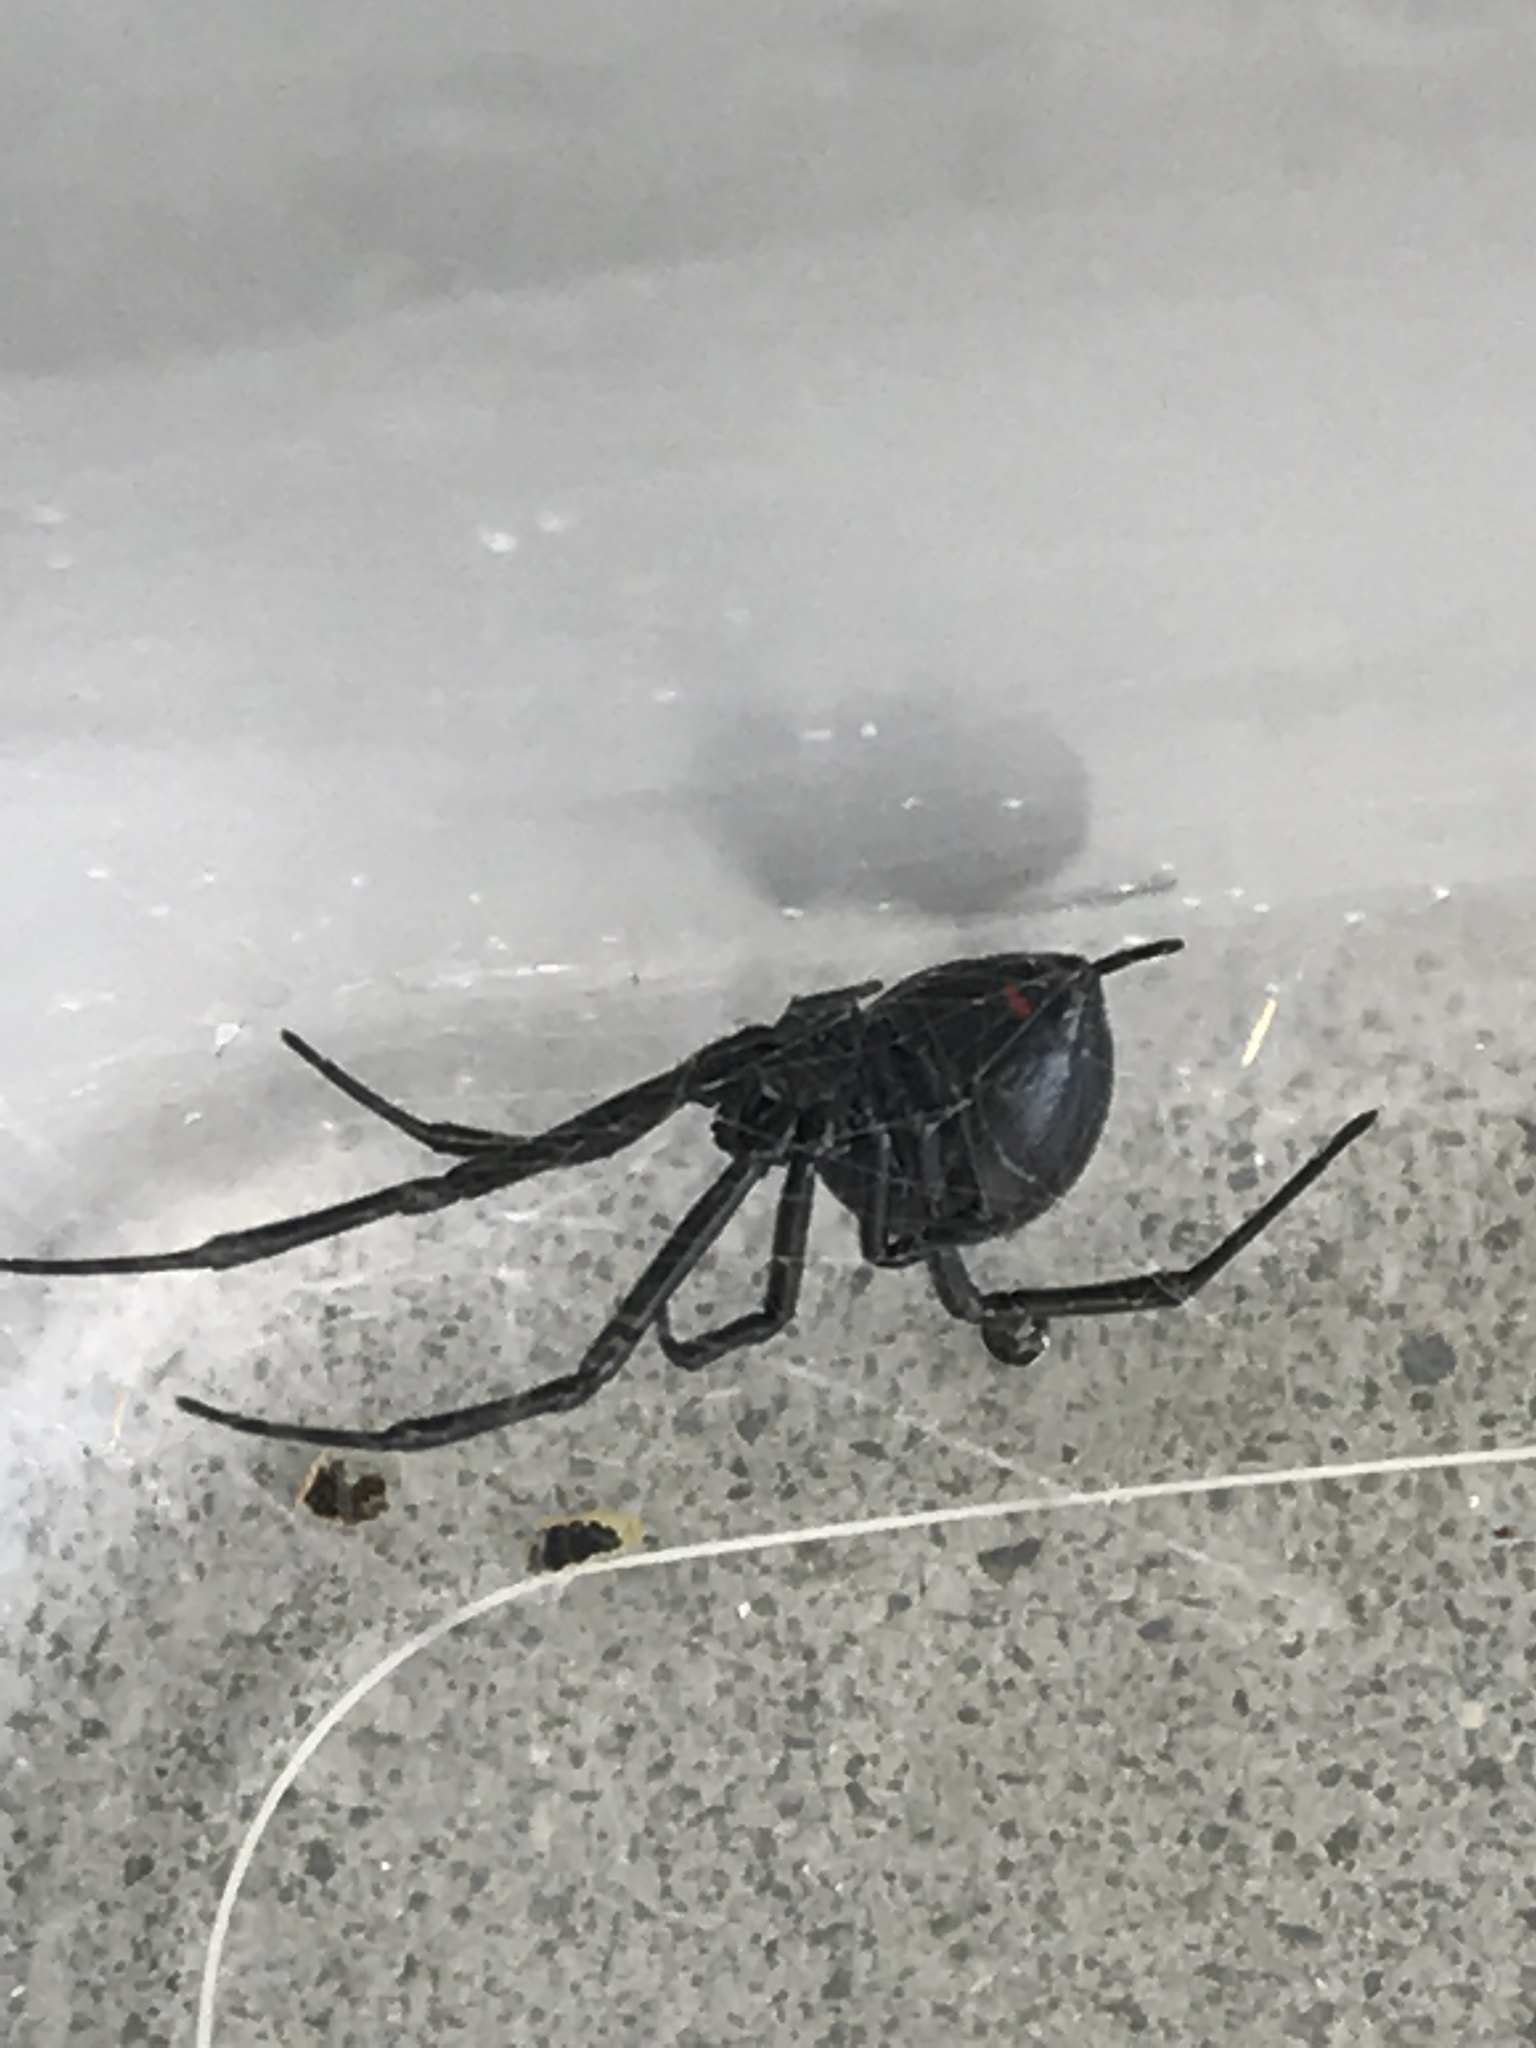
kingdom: Animalia
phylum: Arthropoda
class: Arachnida
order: Araneae
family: Theridiidae
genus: Latrodectus
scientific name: Latrodectus variolus
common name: Northern black widow
